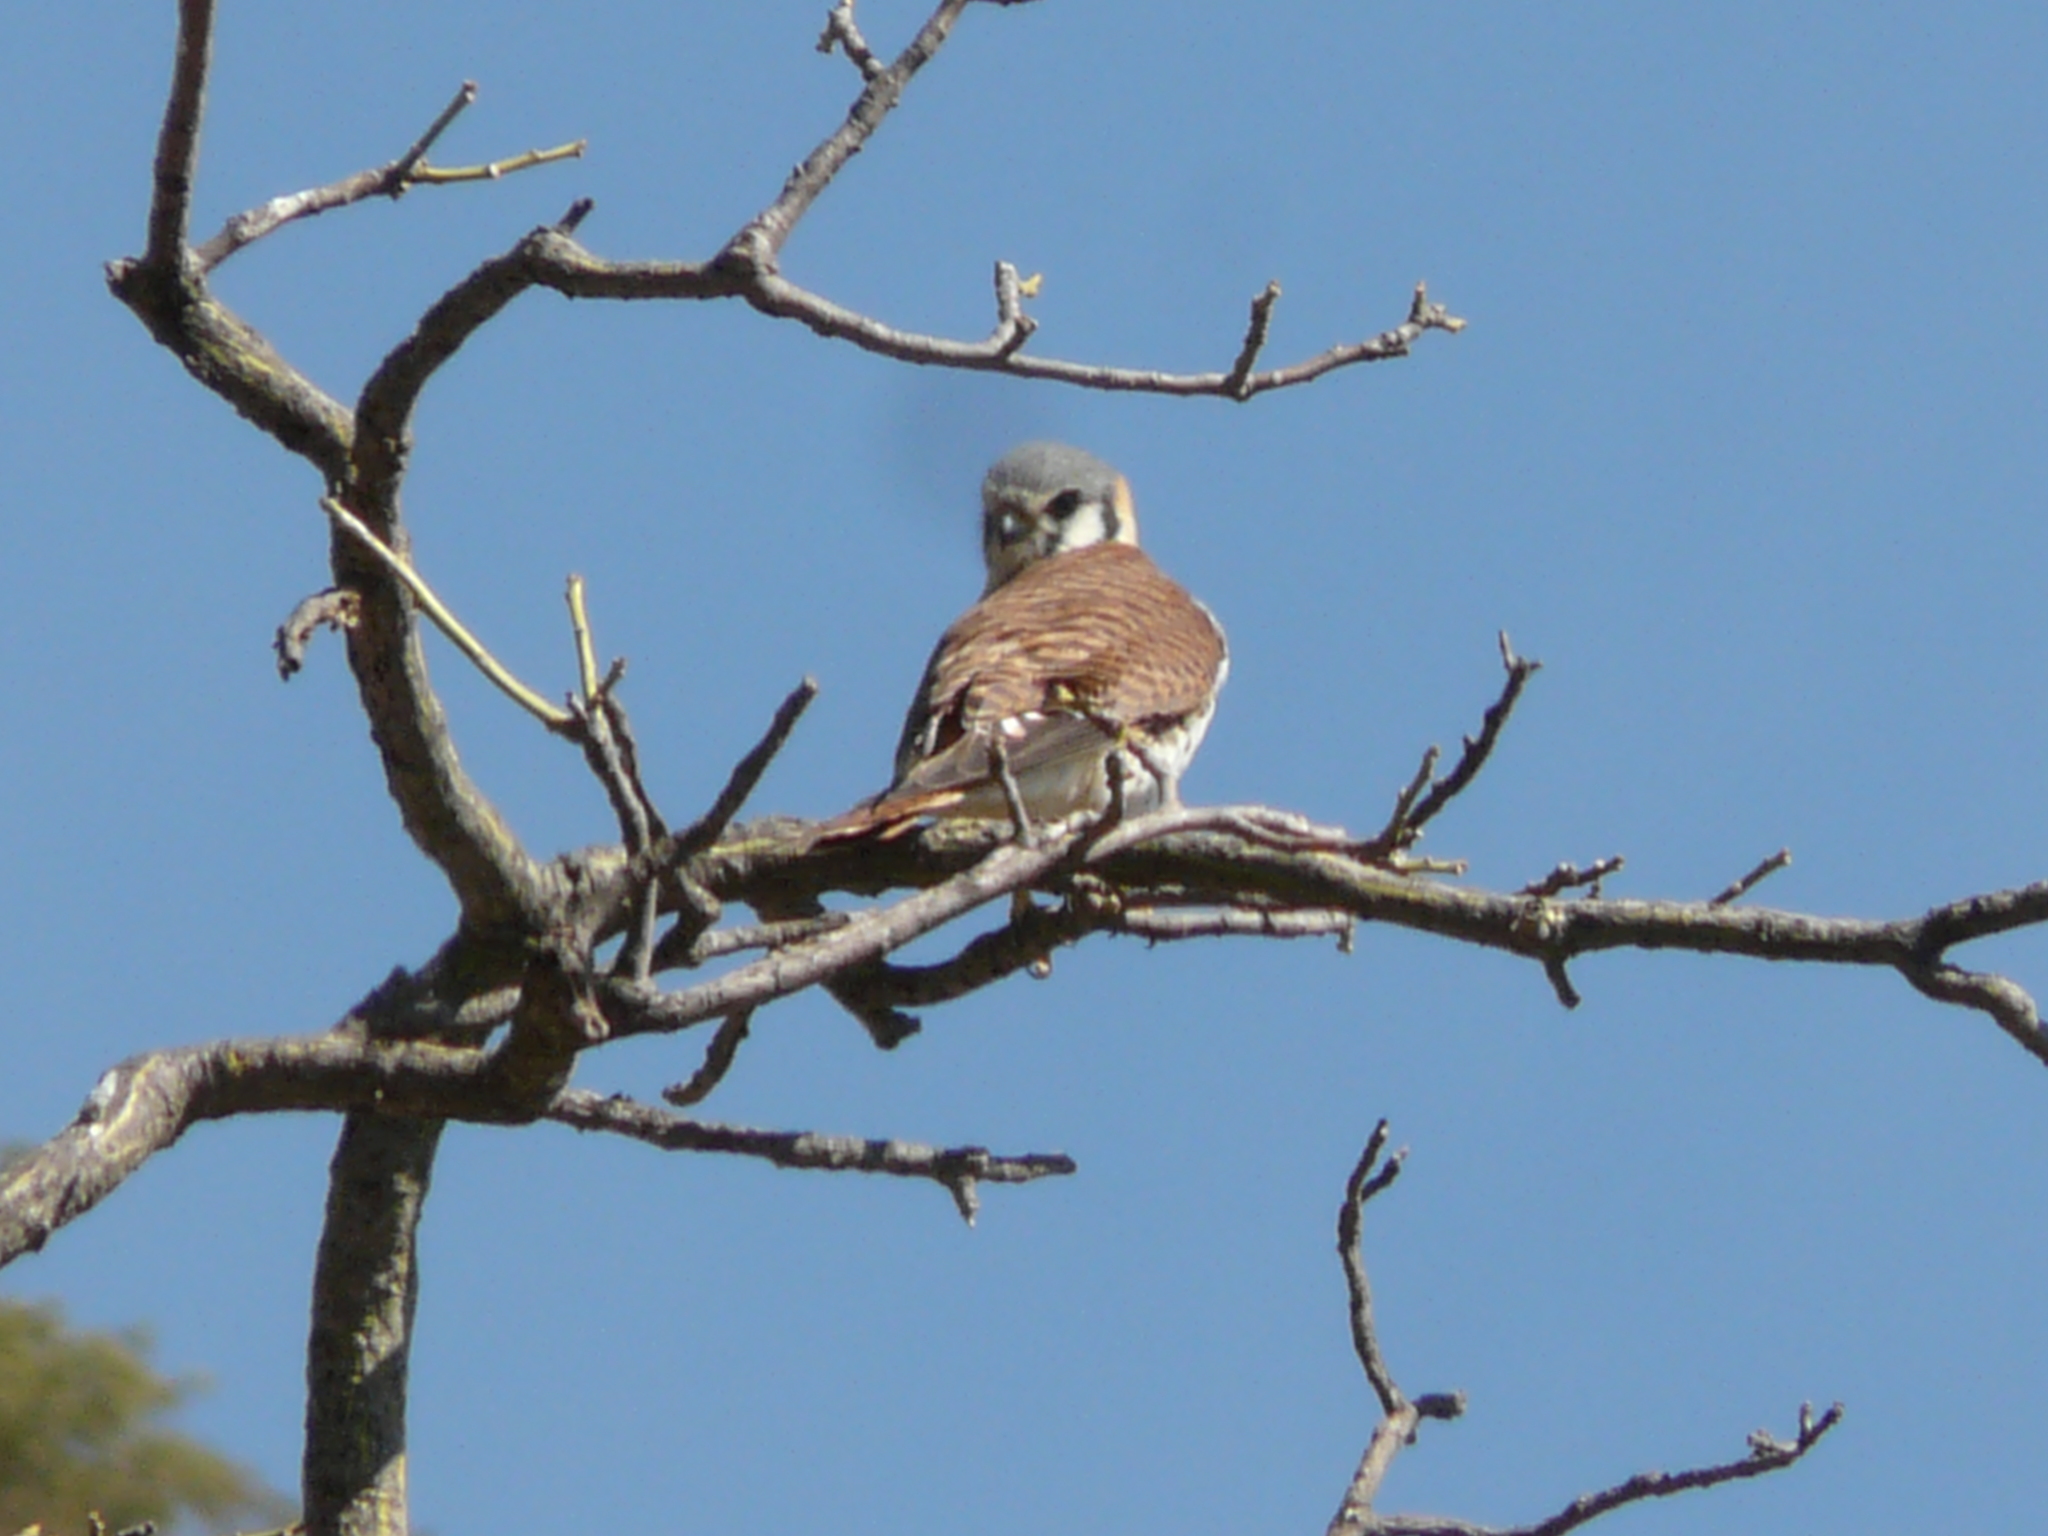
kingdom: Animalia
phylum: Chordata
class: Aves
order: Falconiformes
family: Falconidae
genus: Falco
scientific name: Falco sparverius
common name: American kestrel
